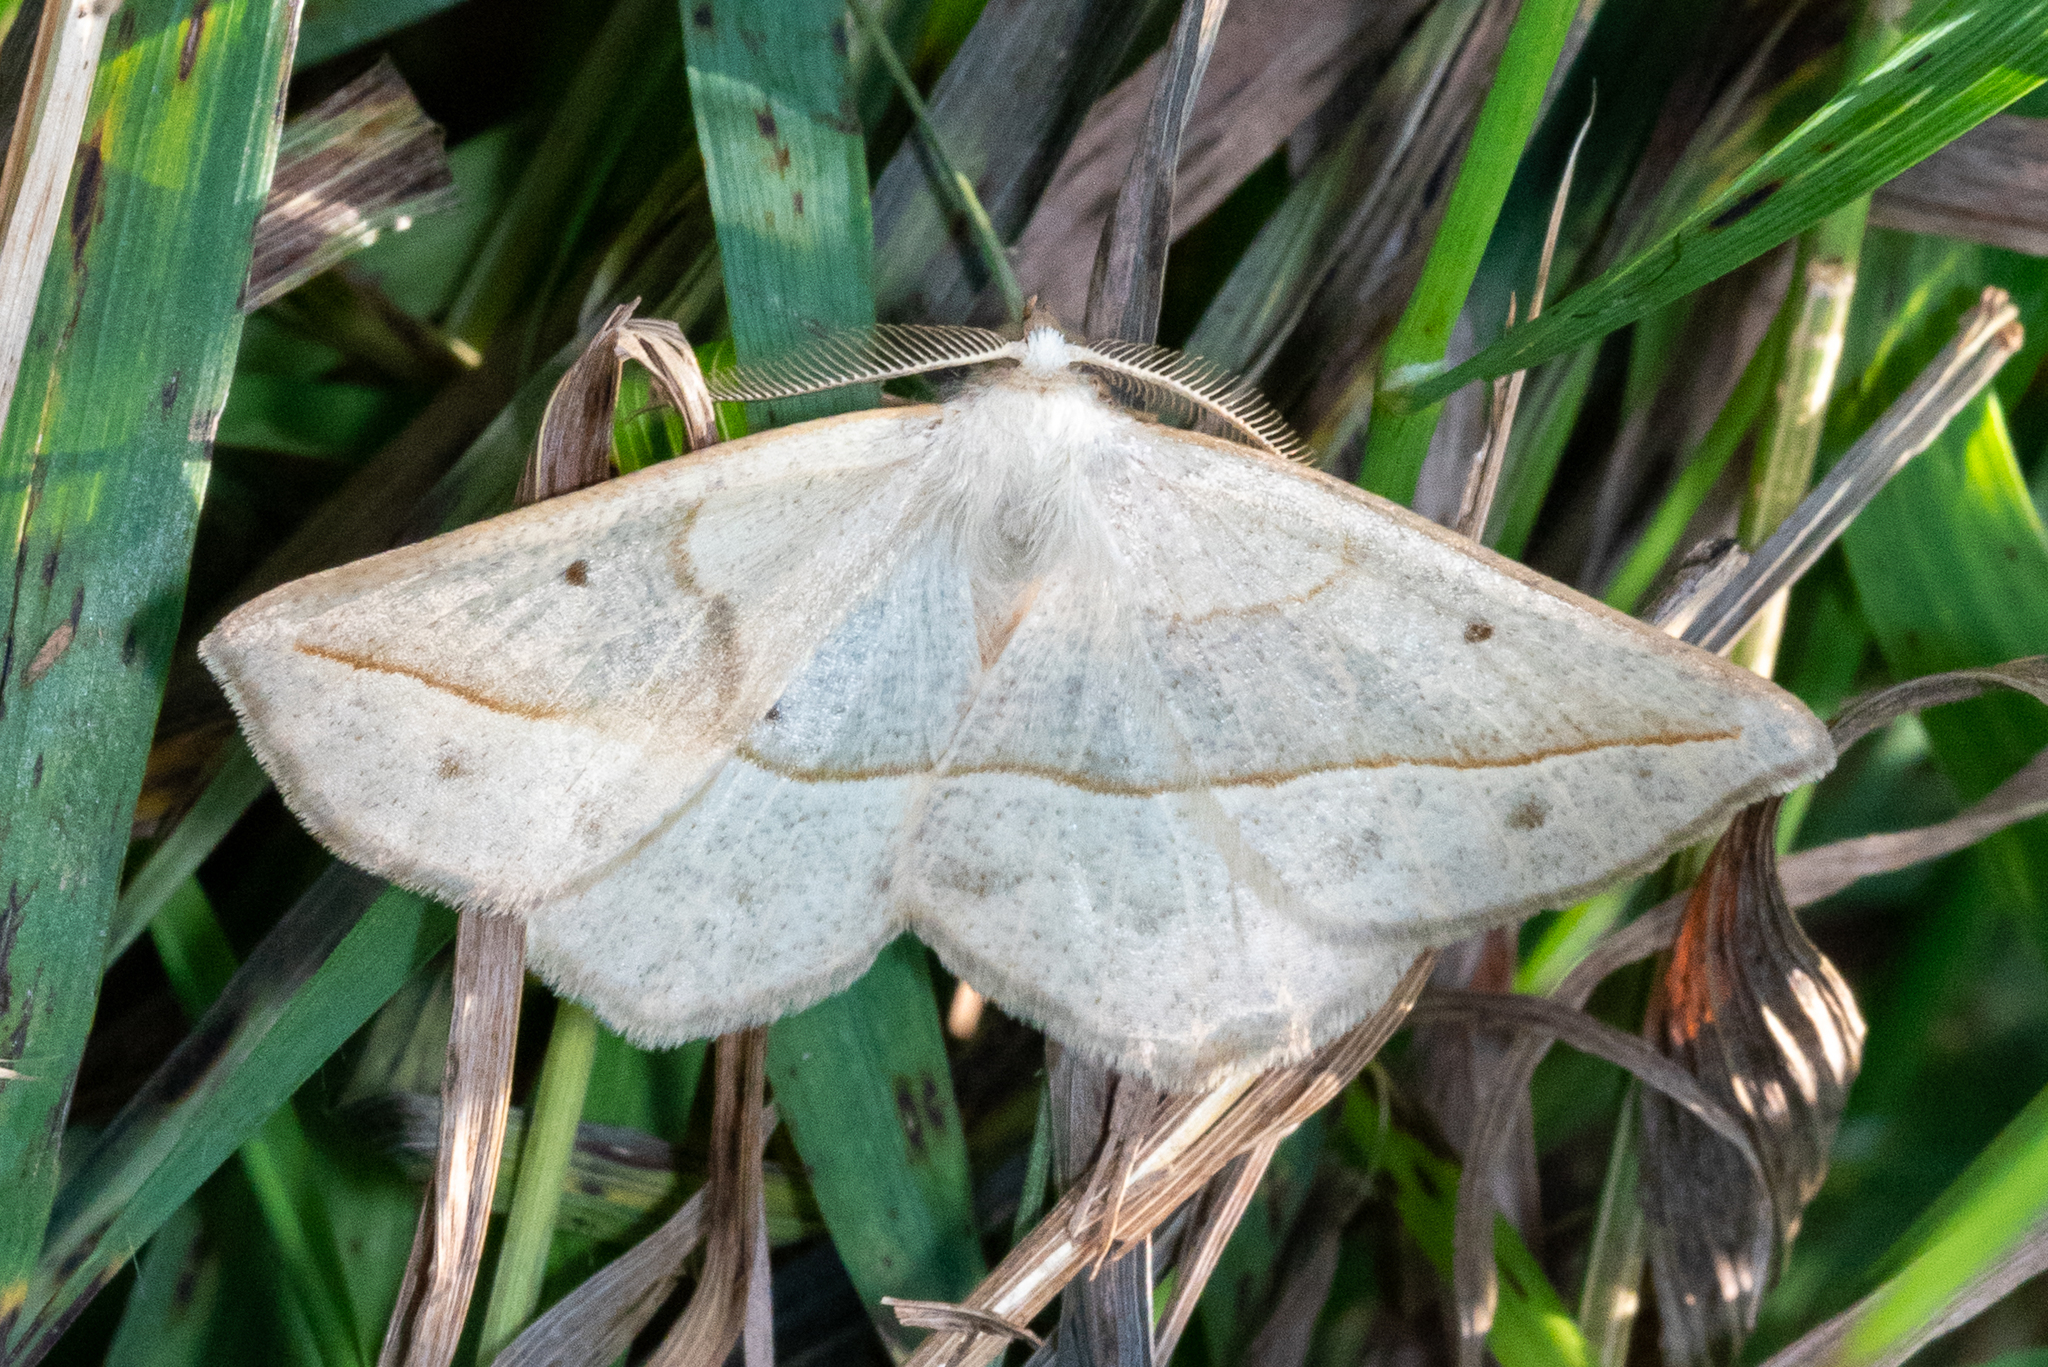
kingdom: Animalia
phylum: Arthropoda
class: Insecta
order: Lepidoptera
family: Geometridae
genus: Eusarca
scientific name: Eusarca confusaria
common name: Confused eusarca
